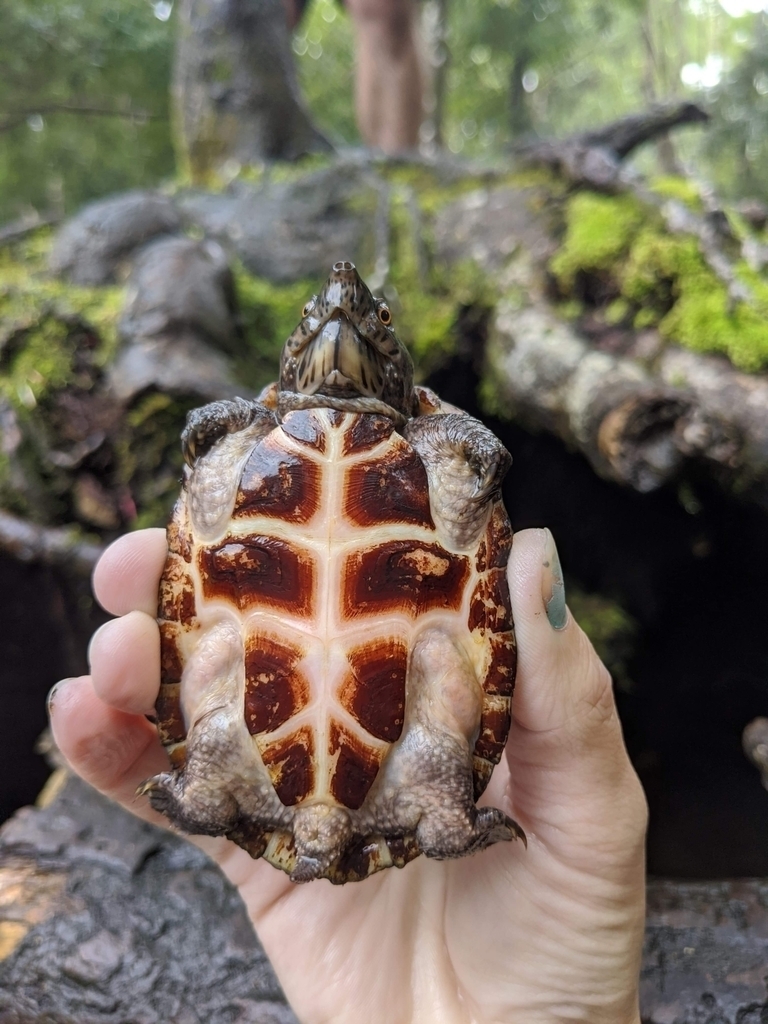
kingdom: Animalia
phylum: Chordata
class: Testudines
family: Kinosternidae
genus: Sternotherus
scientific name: Sternotherus minor
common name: Loggerhead musk turtle
